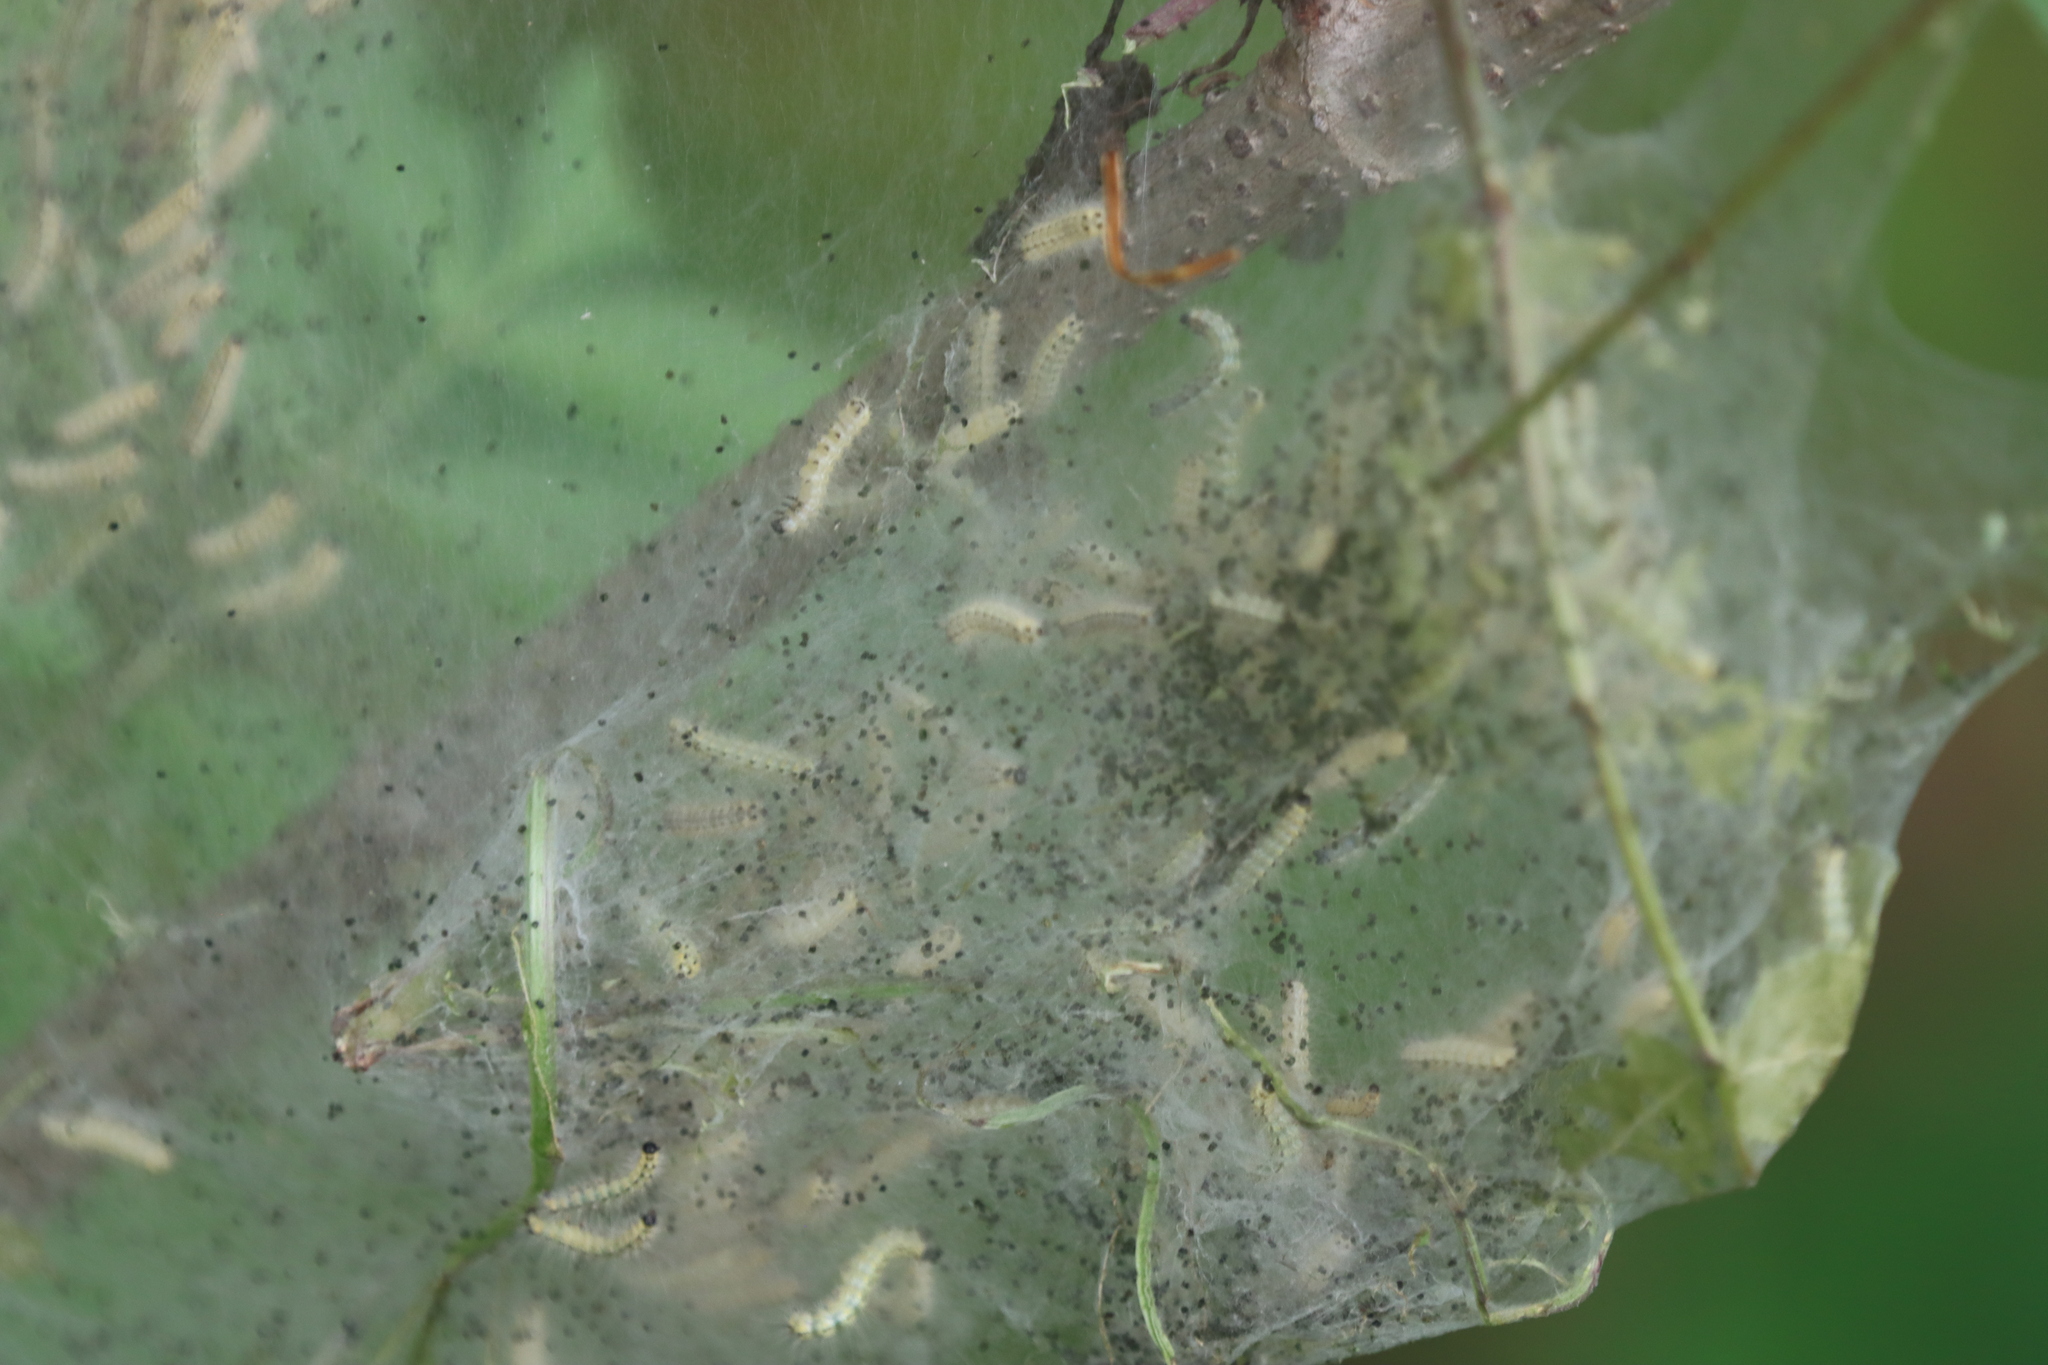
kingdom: Animalia
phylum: Arthropoda
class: Insecta
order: Lepidoptera
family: Erebidae
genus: Hyphantria
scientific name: Hyphantria cunea
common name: American white moth
